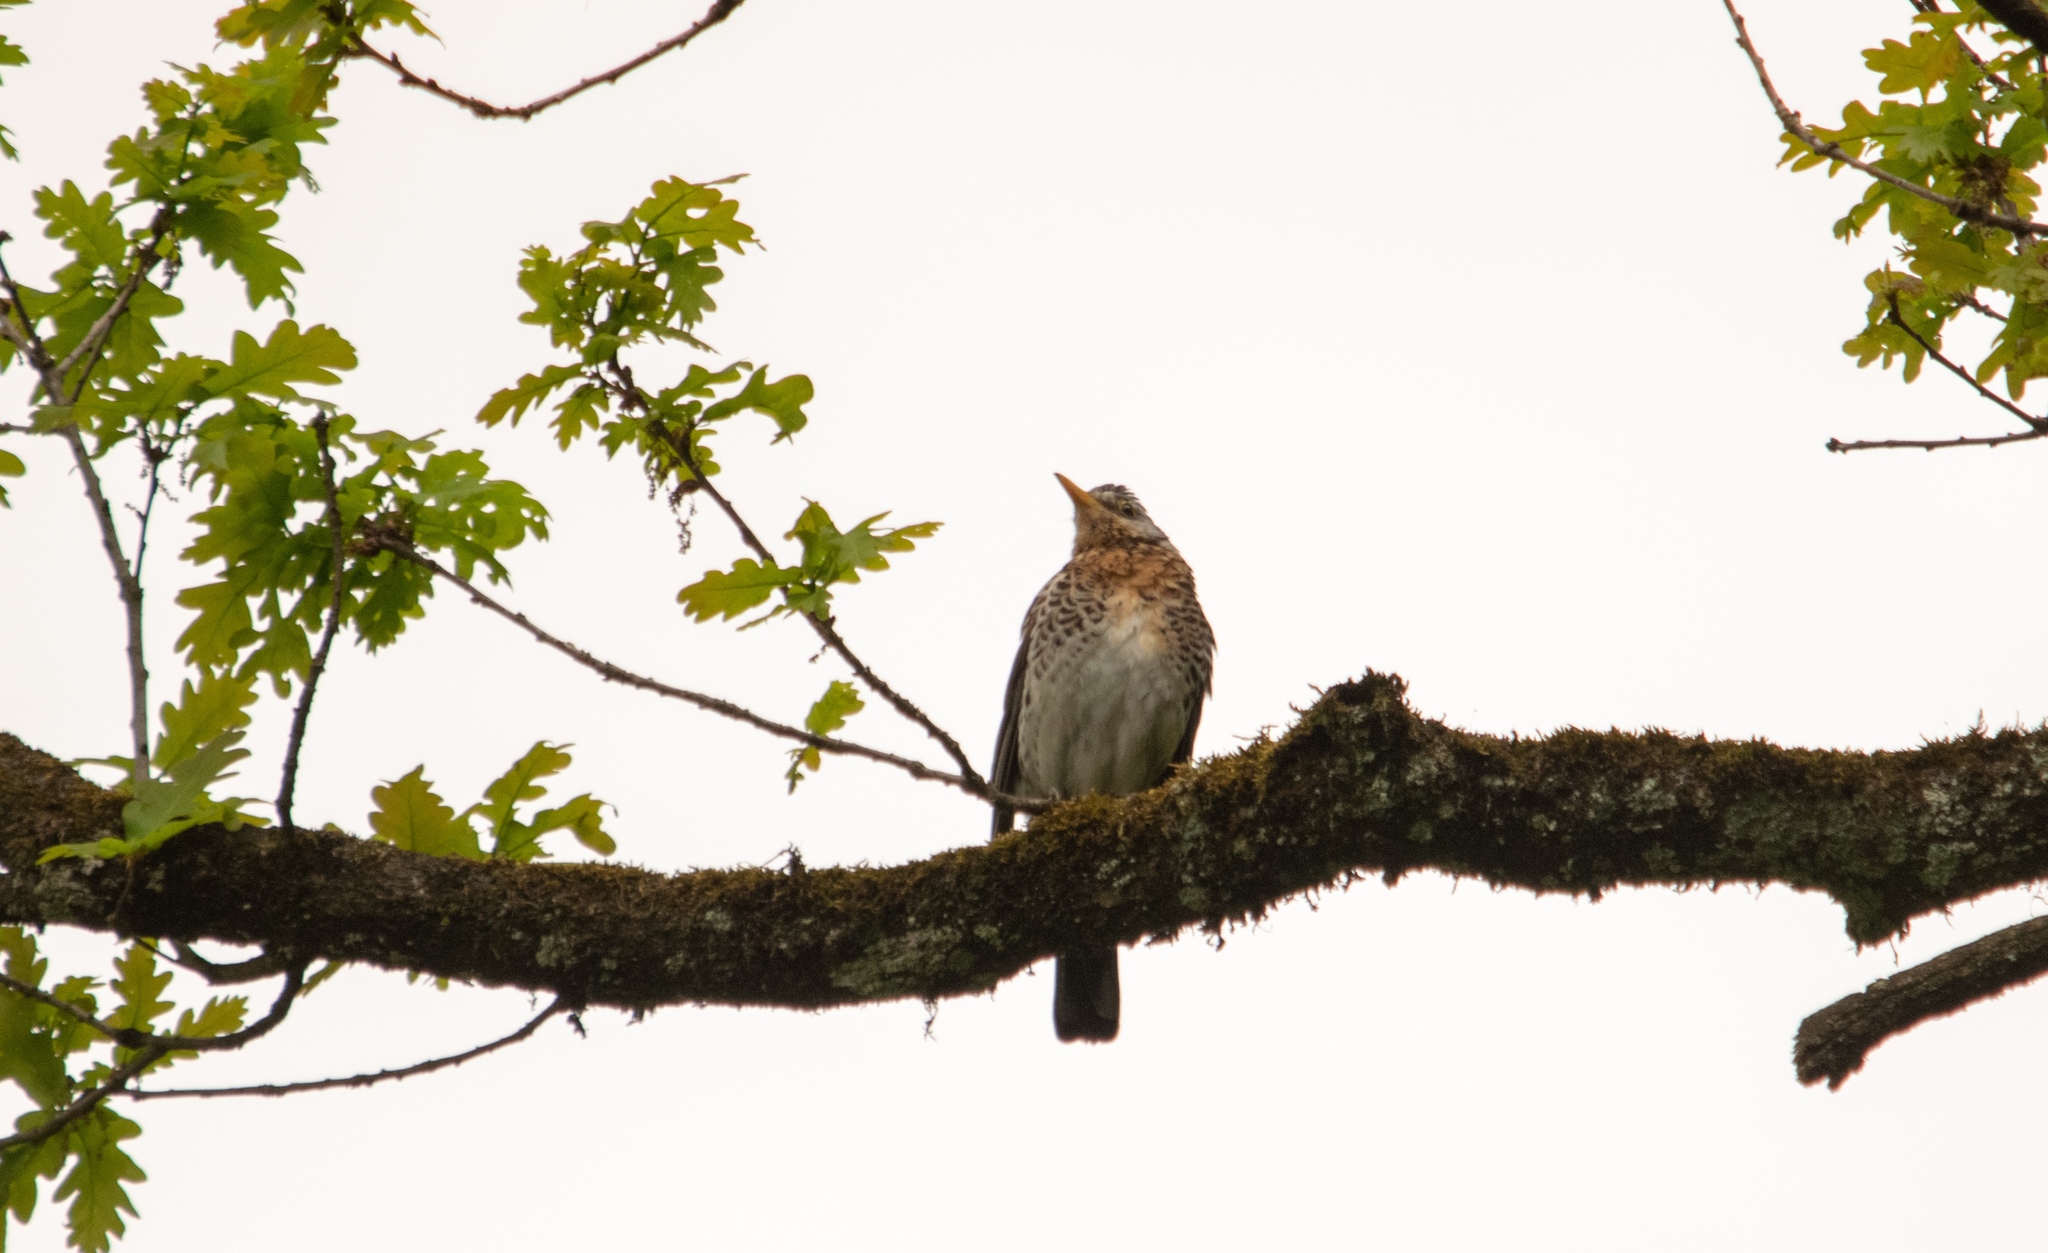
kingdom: Animalia
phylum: Chordata
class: Aves
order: Passeriformes
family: Turdidae
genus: Turdus
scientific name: Turdus pilaris
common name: Fieldfare
